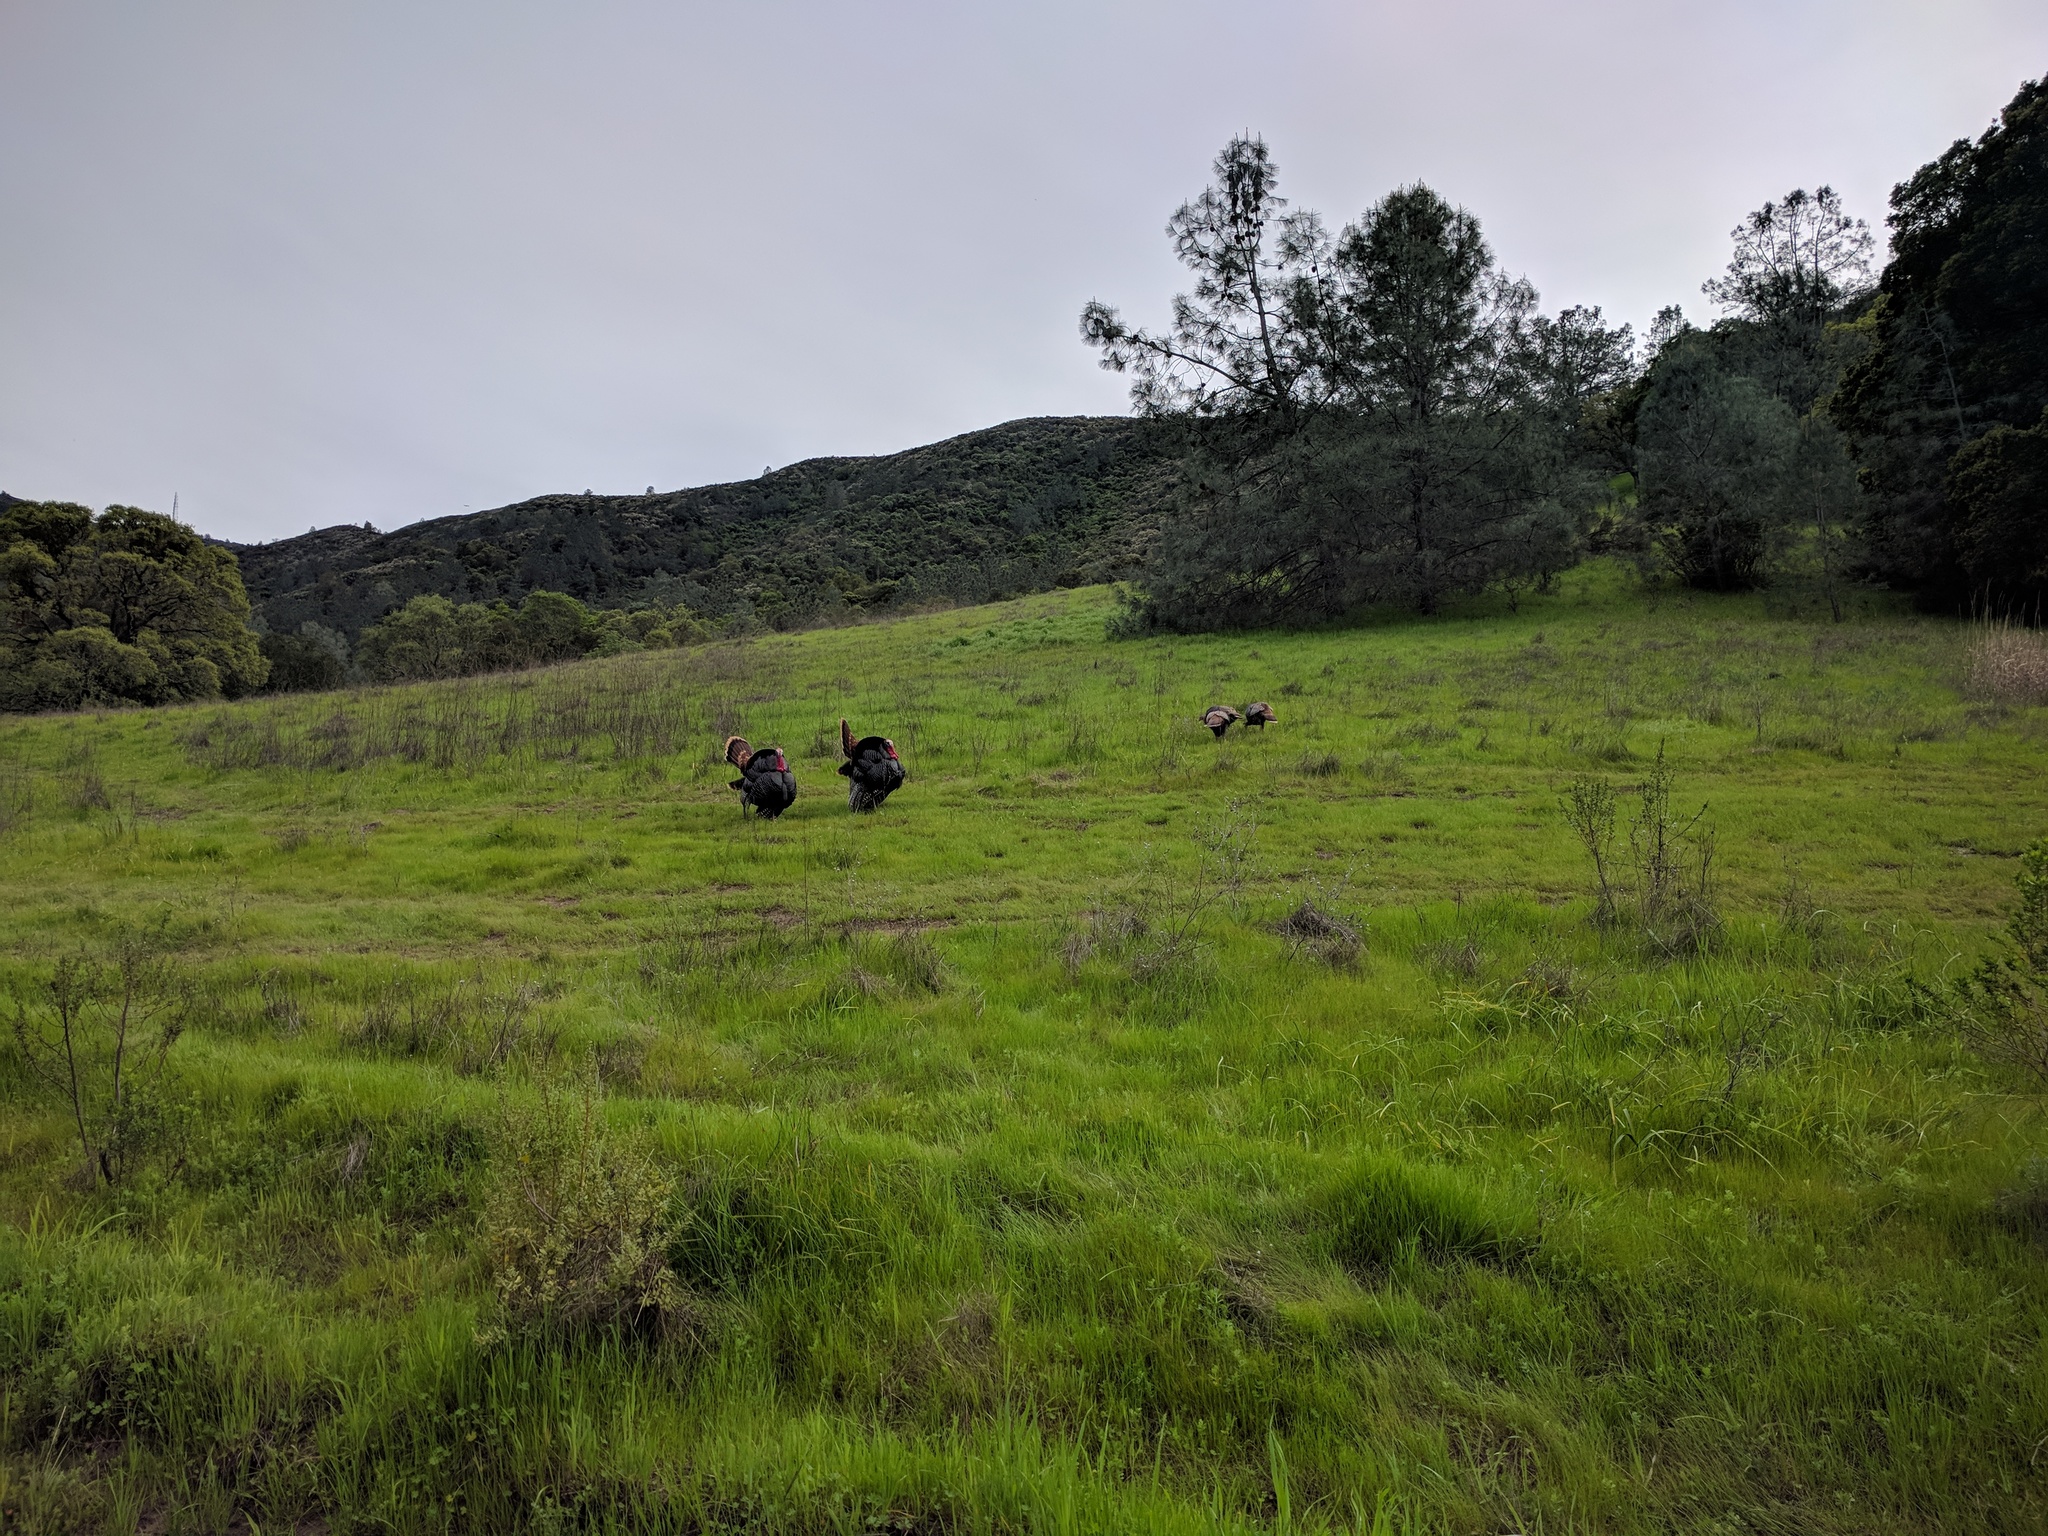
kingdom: Animalia
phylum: Chordata
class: Aves
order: Galliformes
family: Phasianidae
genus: Meleagris
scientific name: Meleagris gallopavo
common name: Wild turkey
